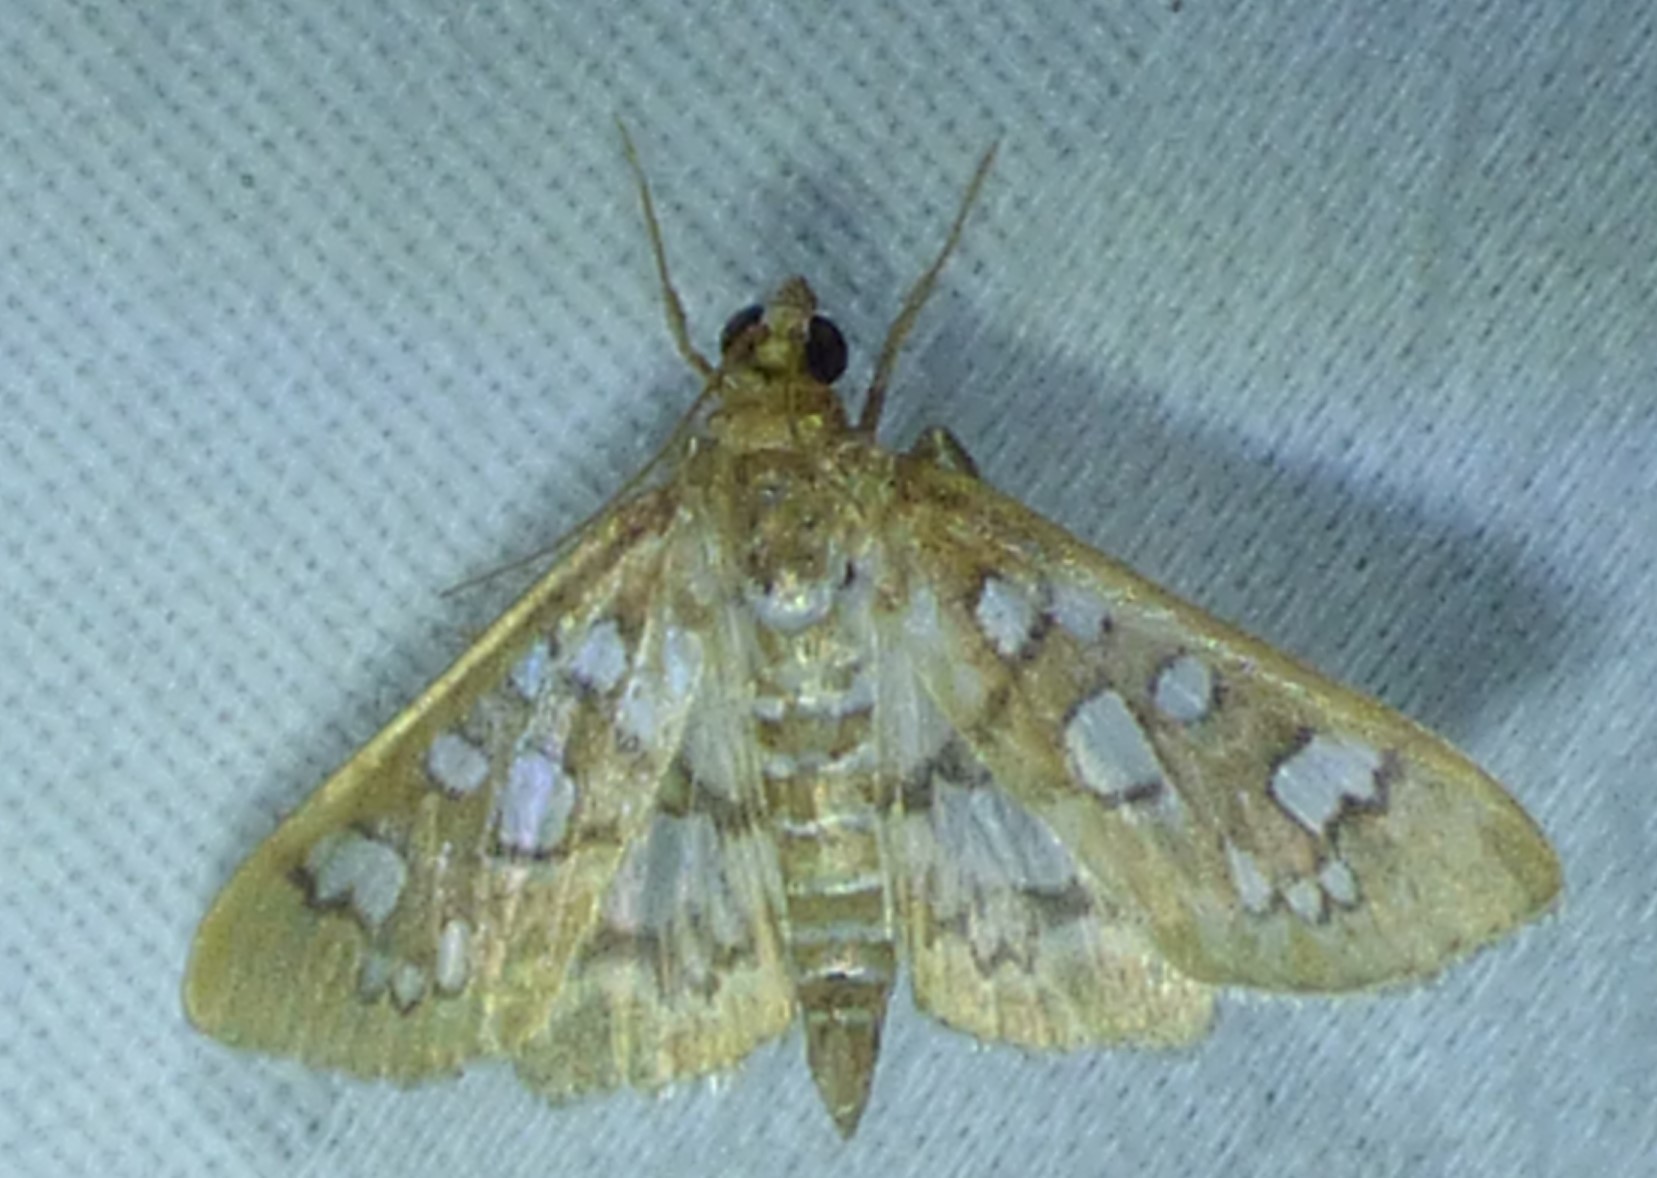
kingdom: Animalia
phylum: Arthropoda
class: Insecta
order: Lepidoptera
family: Crambidae
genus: Samea
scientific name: Samea baccatalis
